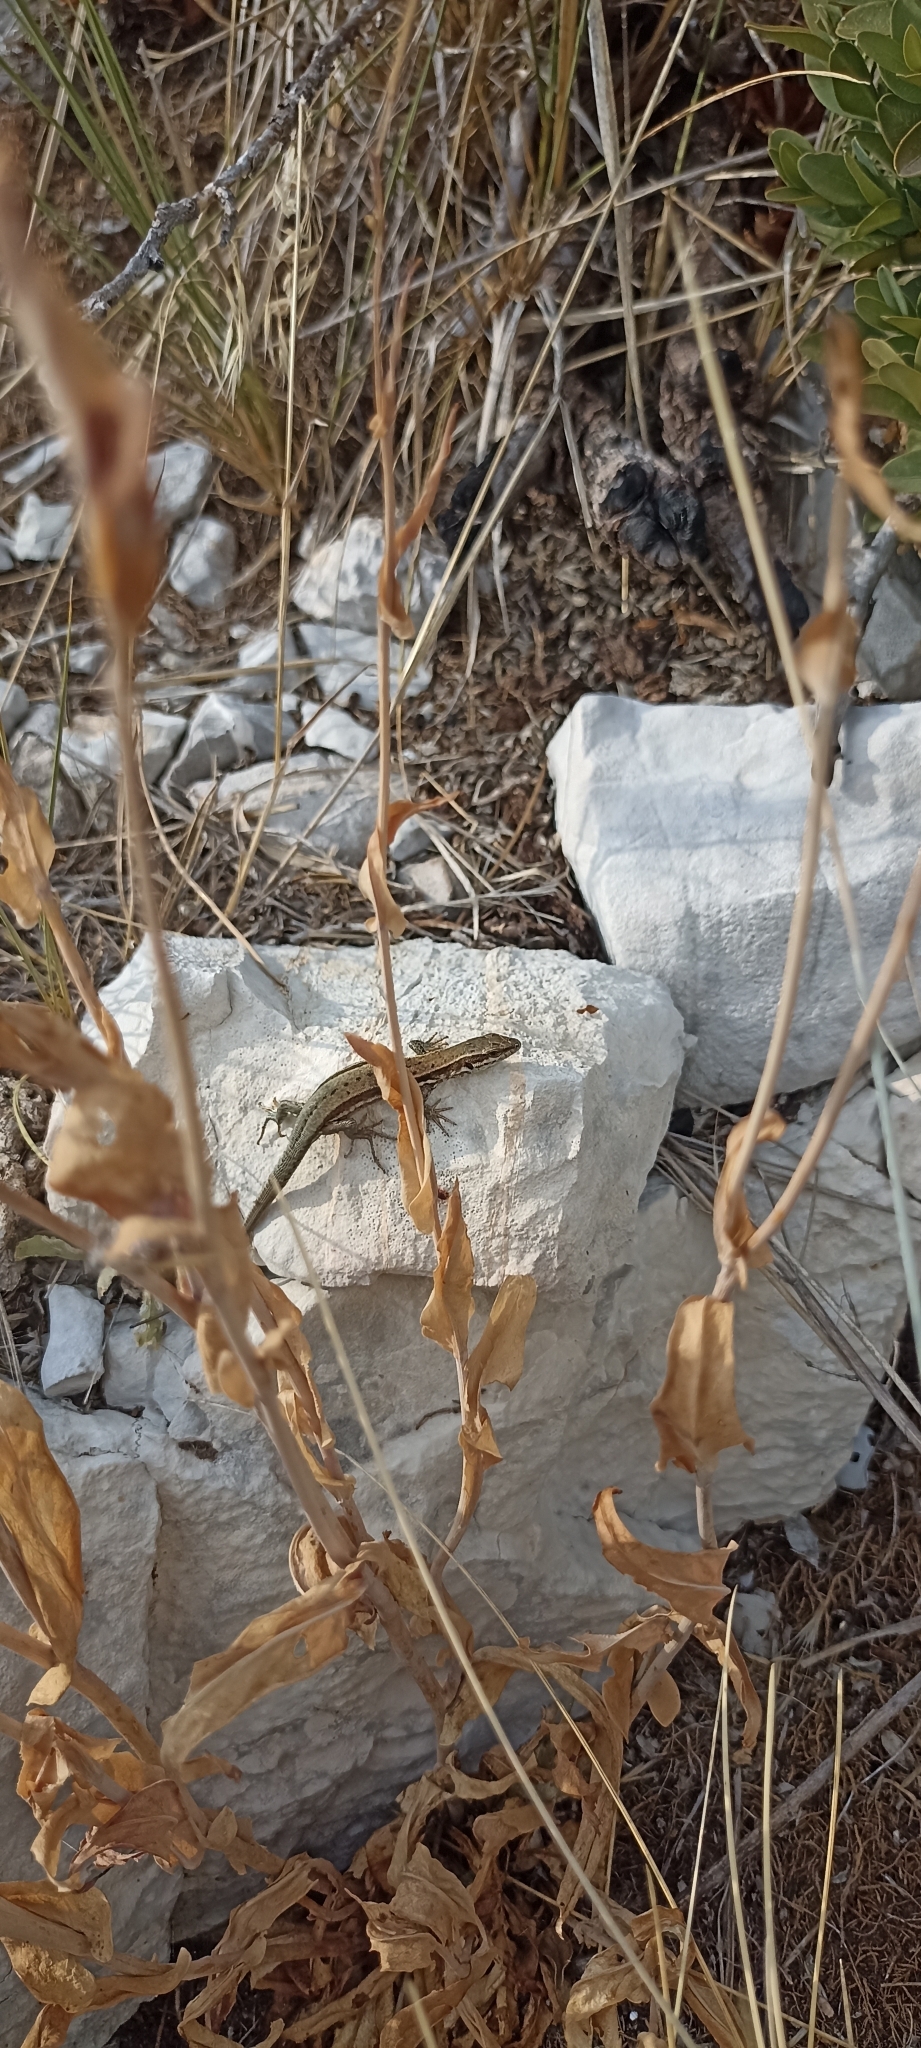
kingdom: Animalia
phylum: Chordata
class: Squamata
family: Lacertidae
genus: Podarcis
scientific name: Podarcis muralis
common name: Common wall lizard
